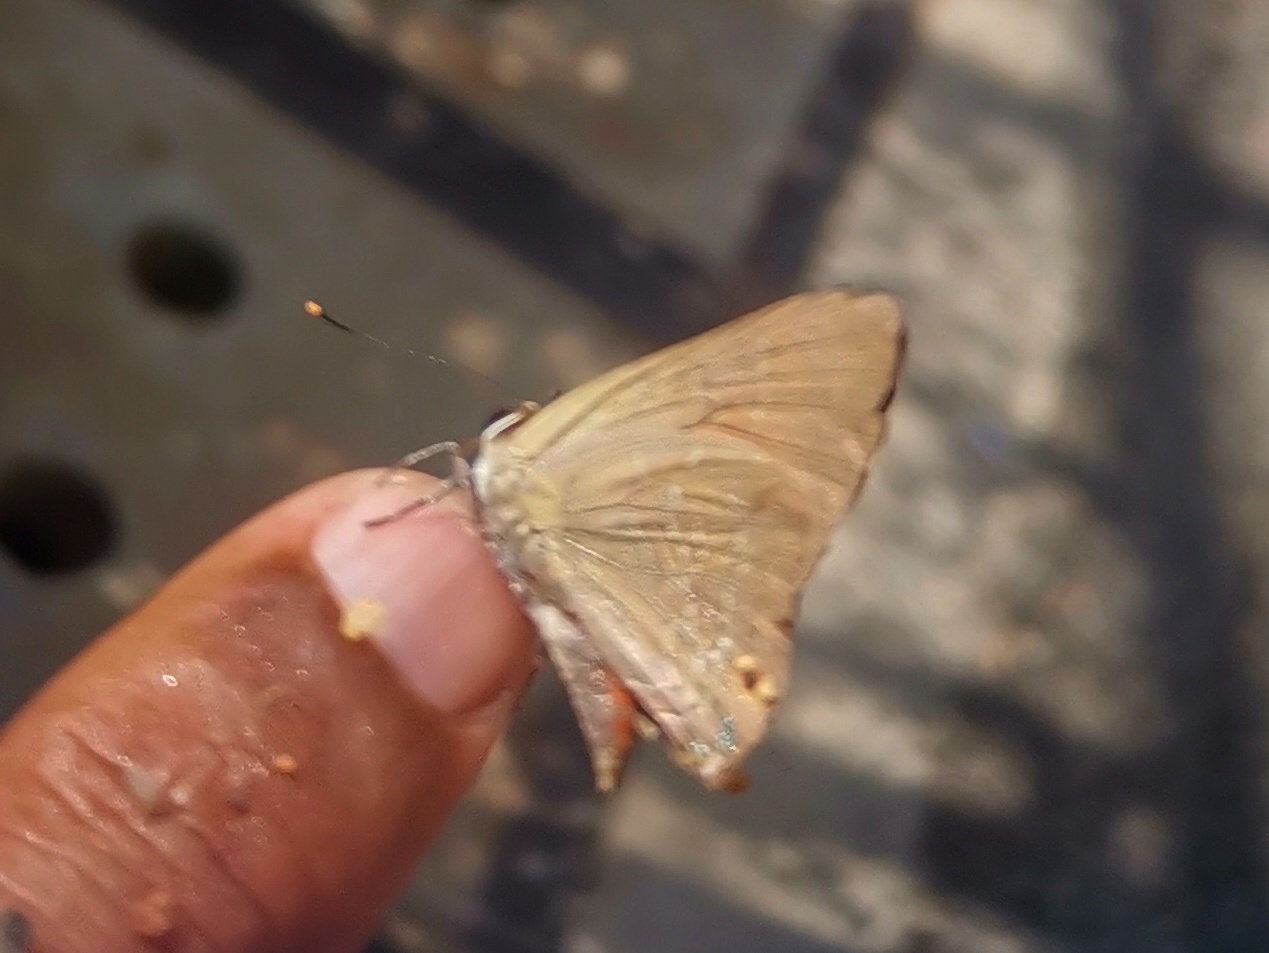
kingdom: Animalia
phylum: Arthropoda
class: Insecta
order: Lepidoptera
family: Lycaenidae
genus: Deudorix
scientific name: Deudorix epijarbas
